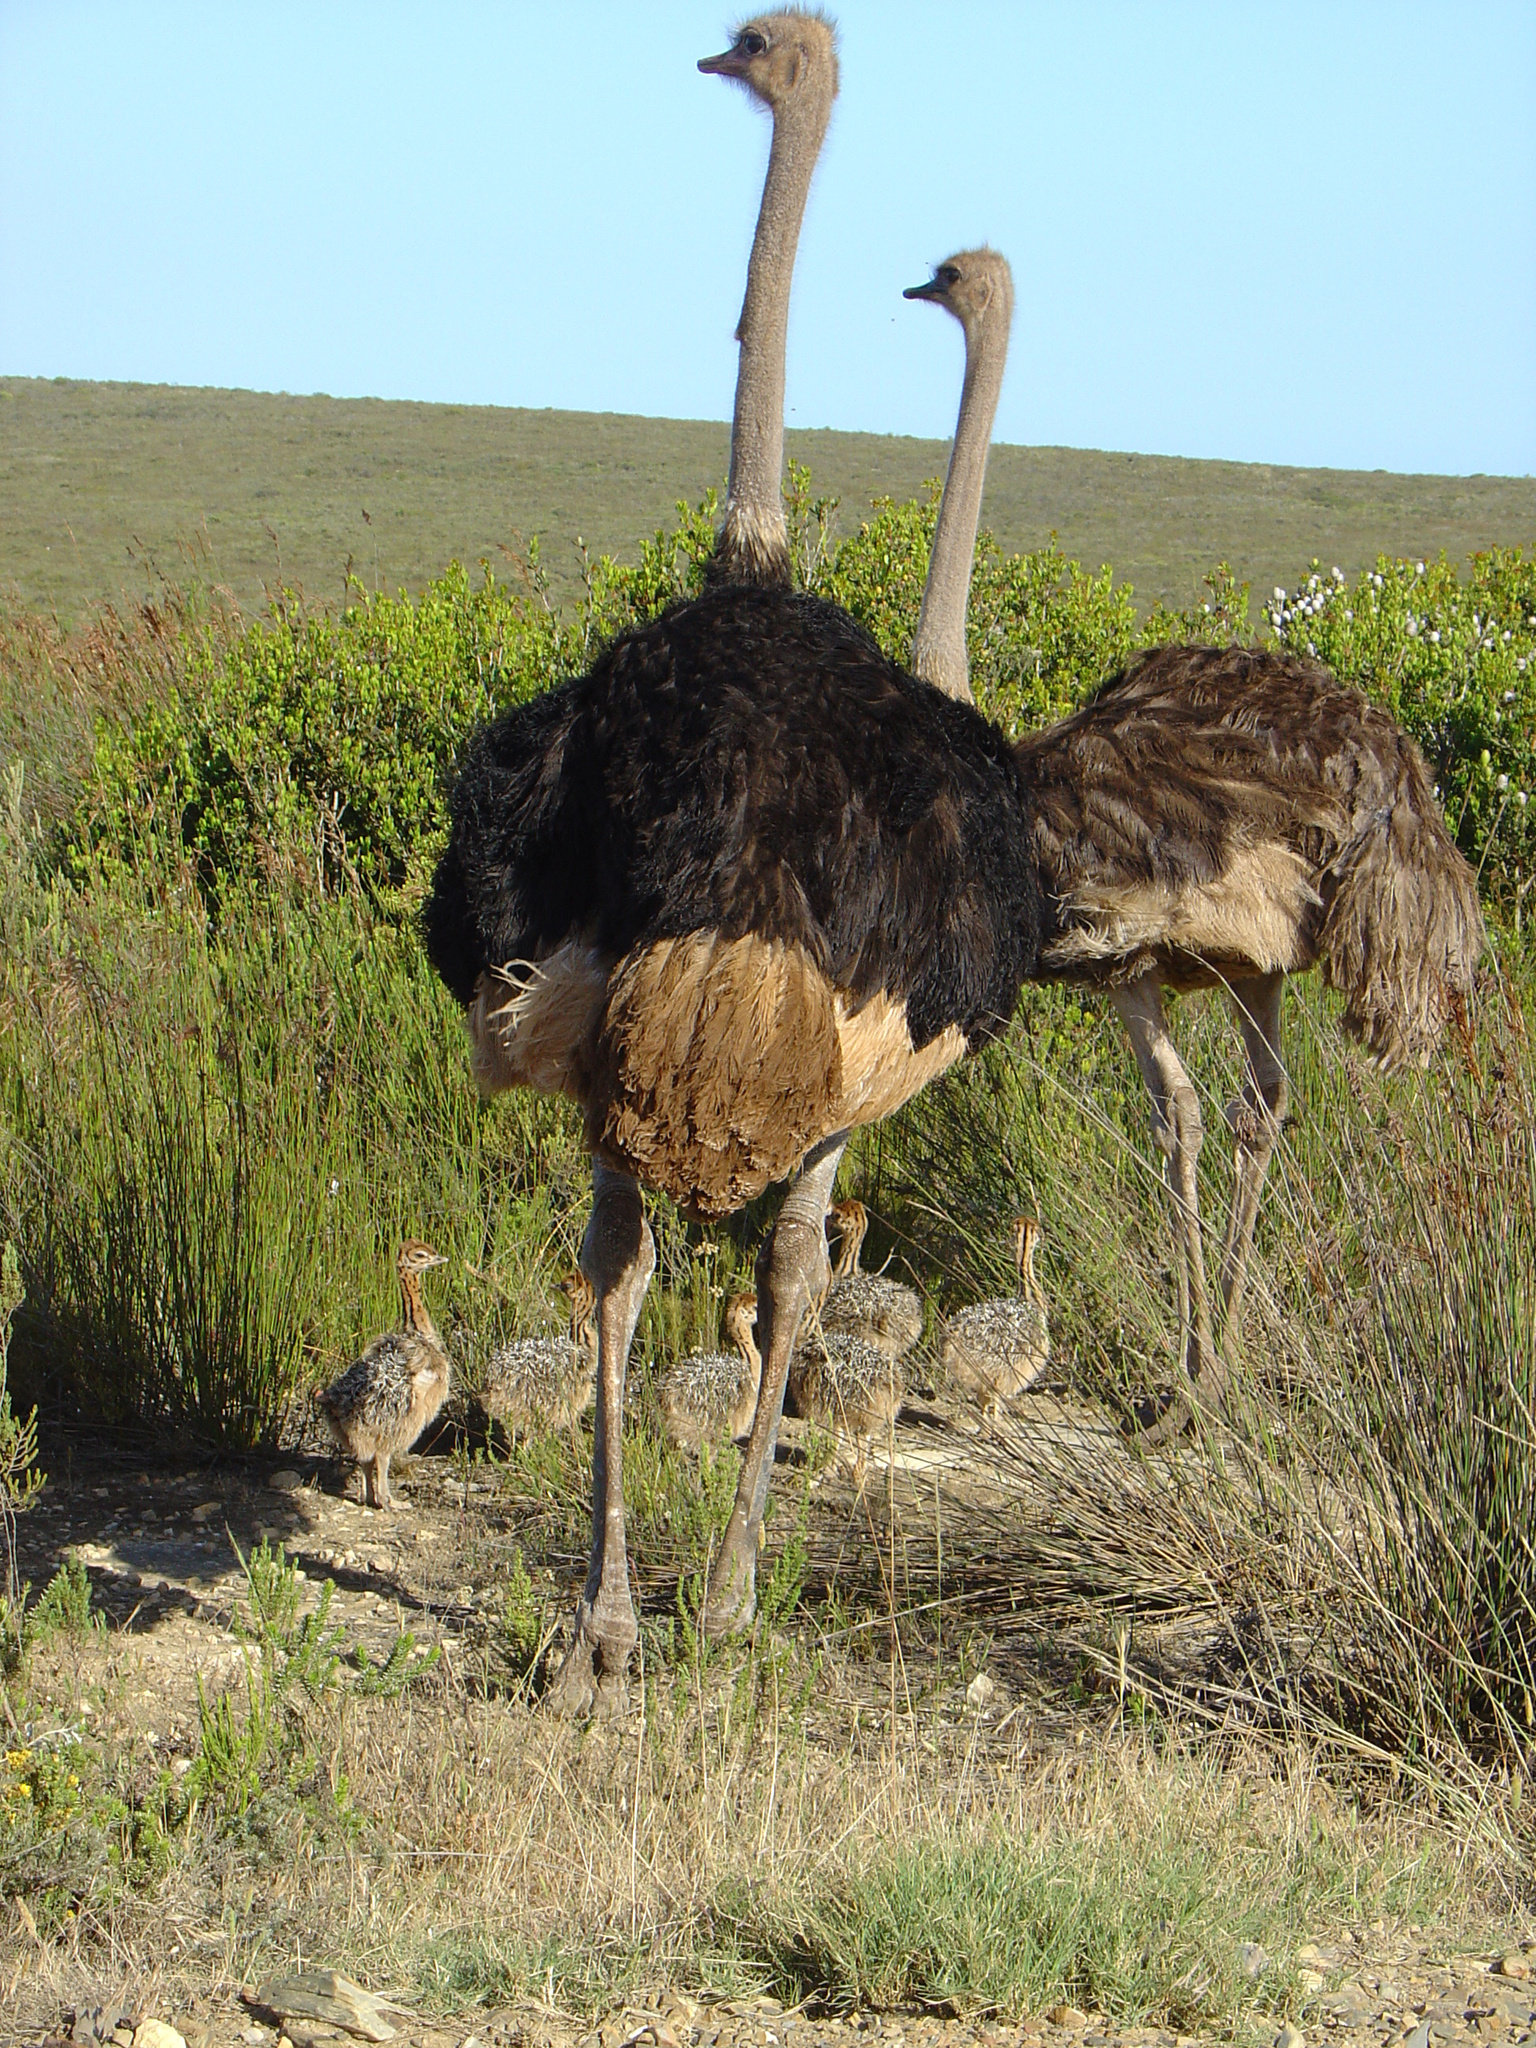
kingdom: Animalia
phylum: Chordata
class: Aves
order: Struthioniformes
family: Struthionidae
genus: Struthio
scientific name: Struthio camelus
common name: Common ostrich
